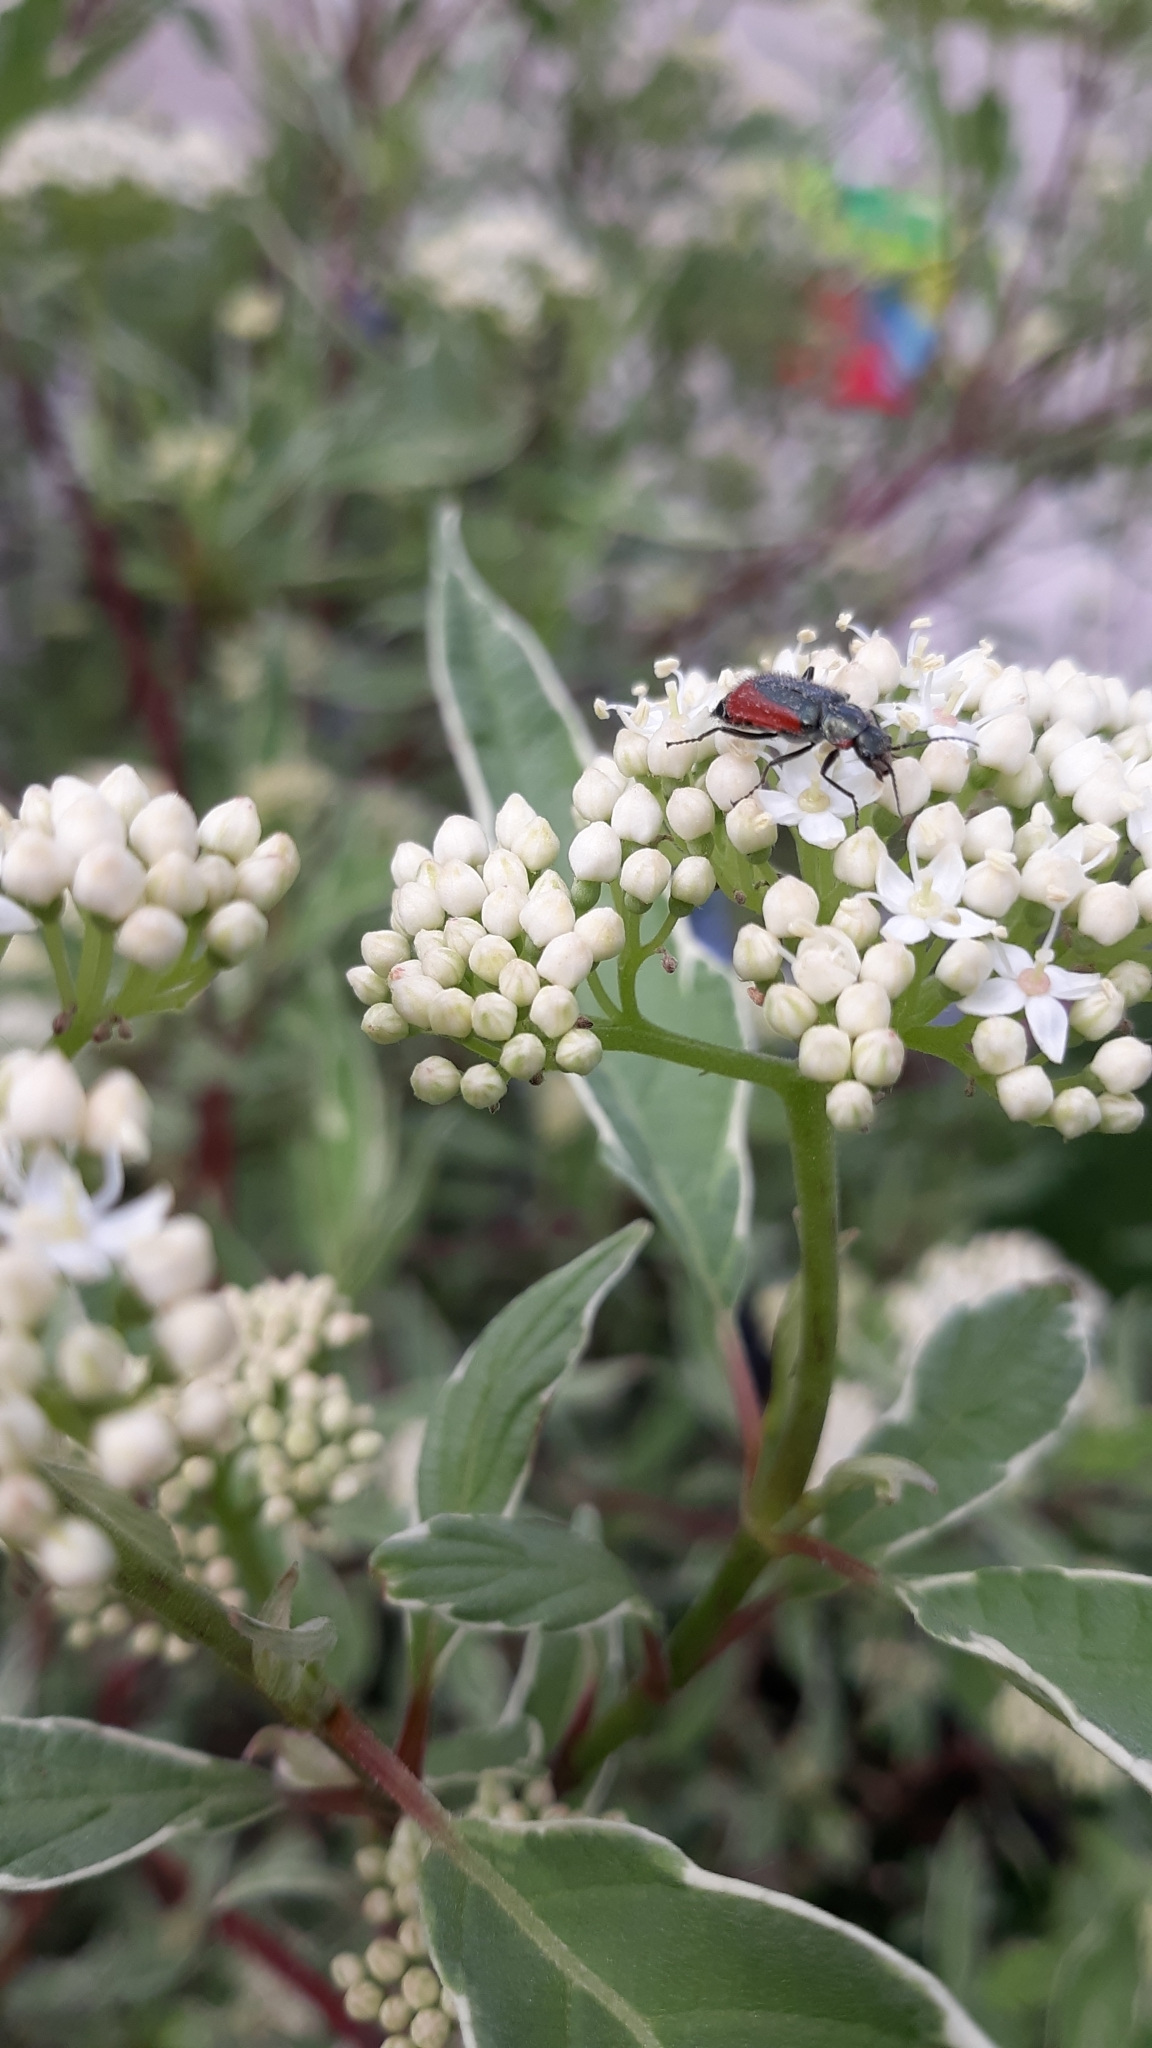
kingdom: Animalia
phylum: Arthropoda
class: Insecta
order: Coleoptera
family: Melyridae
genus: Malachius
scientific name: Malachius aeneus
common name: Scarlet malachite beetle
